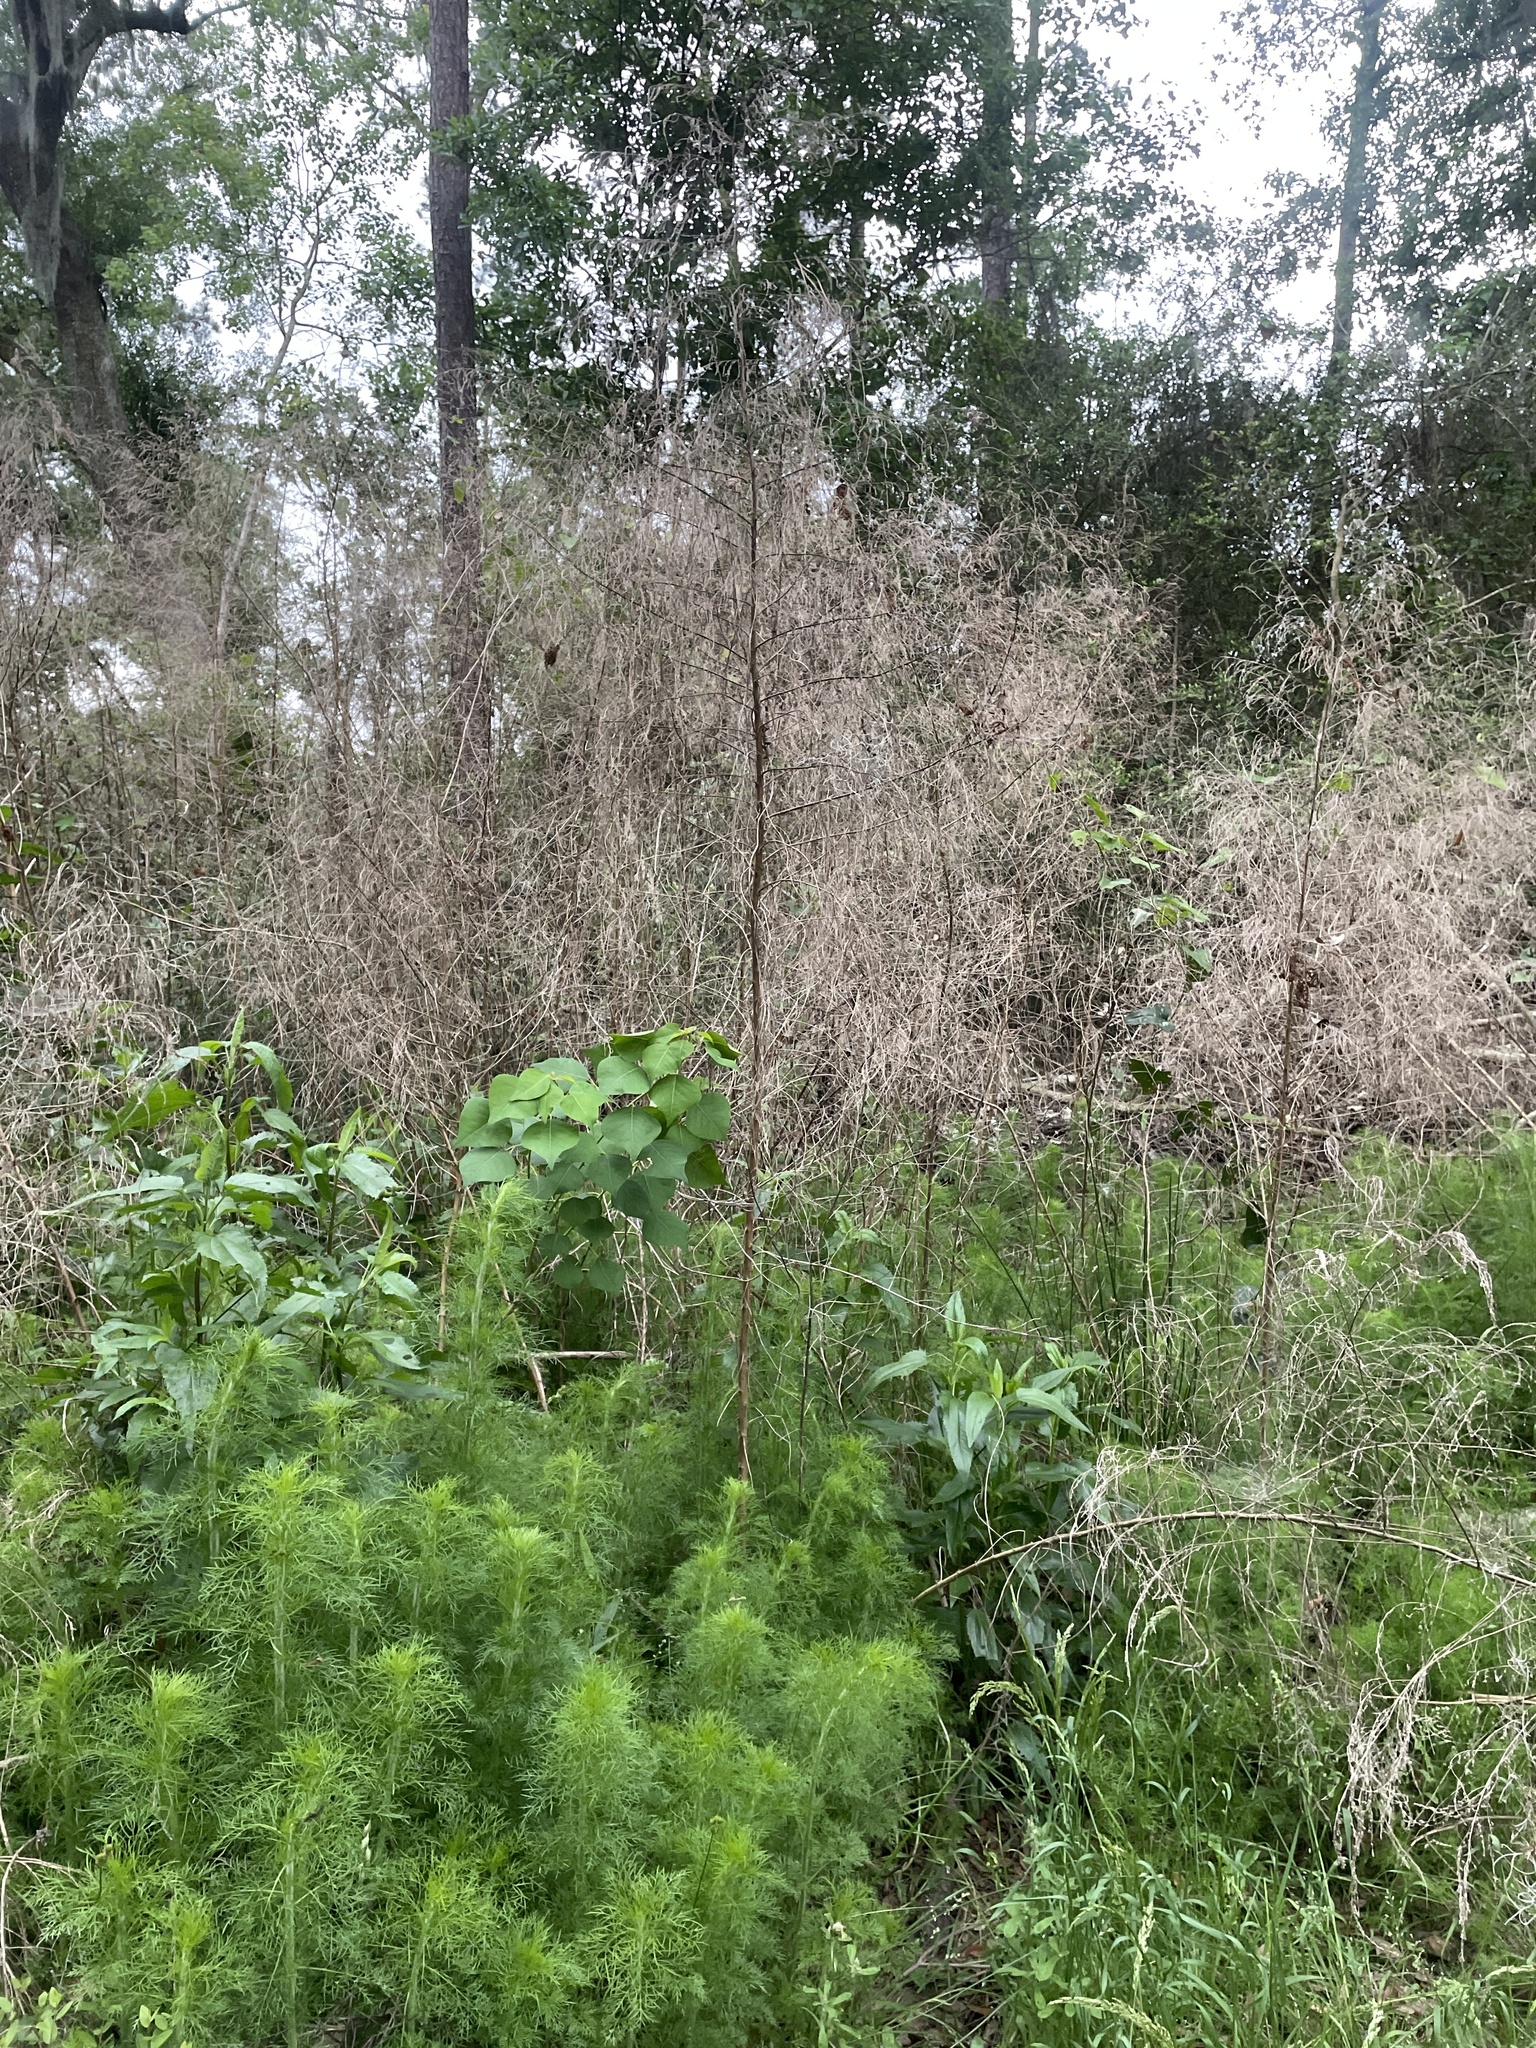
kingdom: Plantae
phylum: Tracheophyta
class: Magnoliopsida
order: Asterales
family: Asteraceae
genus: Eupatorium
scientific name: Eupatorium capillifolium
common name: Dog-fennel
